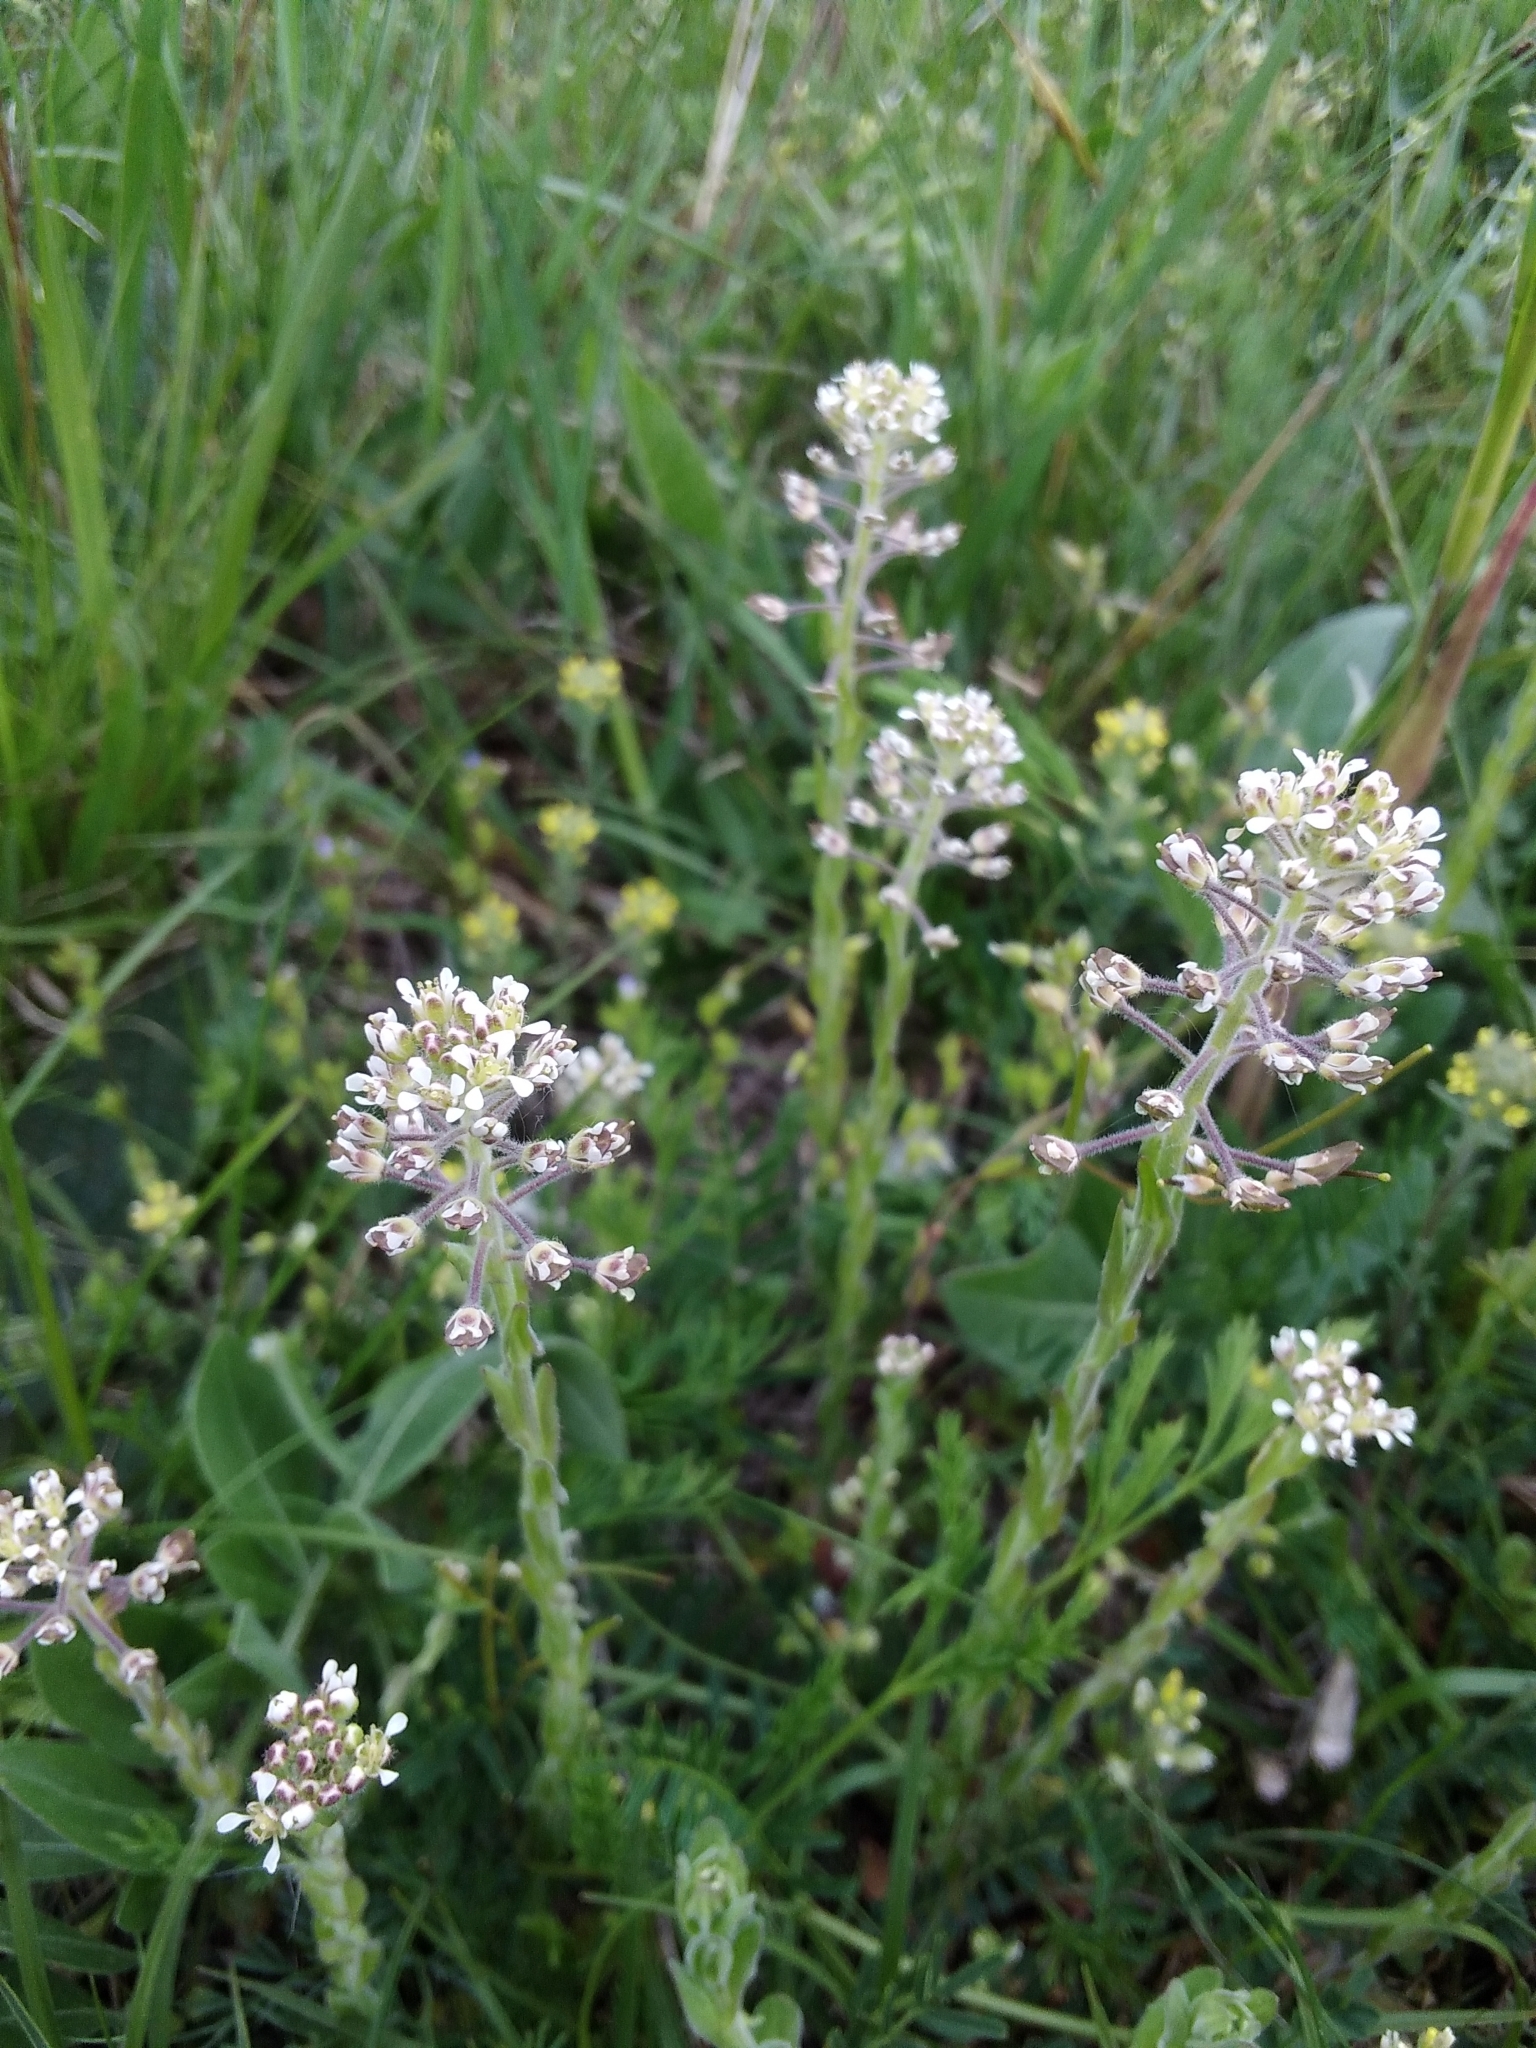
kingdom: Plantae
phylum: Tracheophyta
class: Magnoliopsida
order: Brassicales
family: Brassicaceae
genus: Lepidium
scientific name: Lepidium campestre
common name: Field pepperwort
